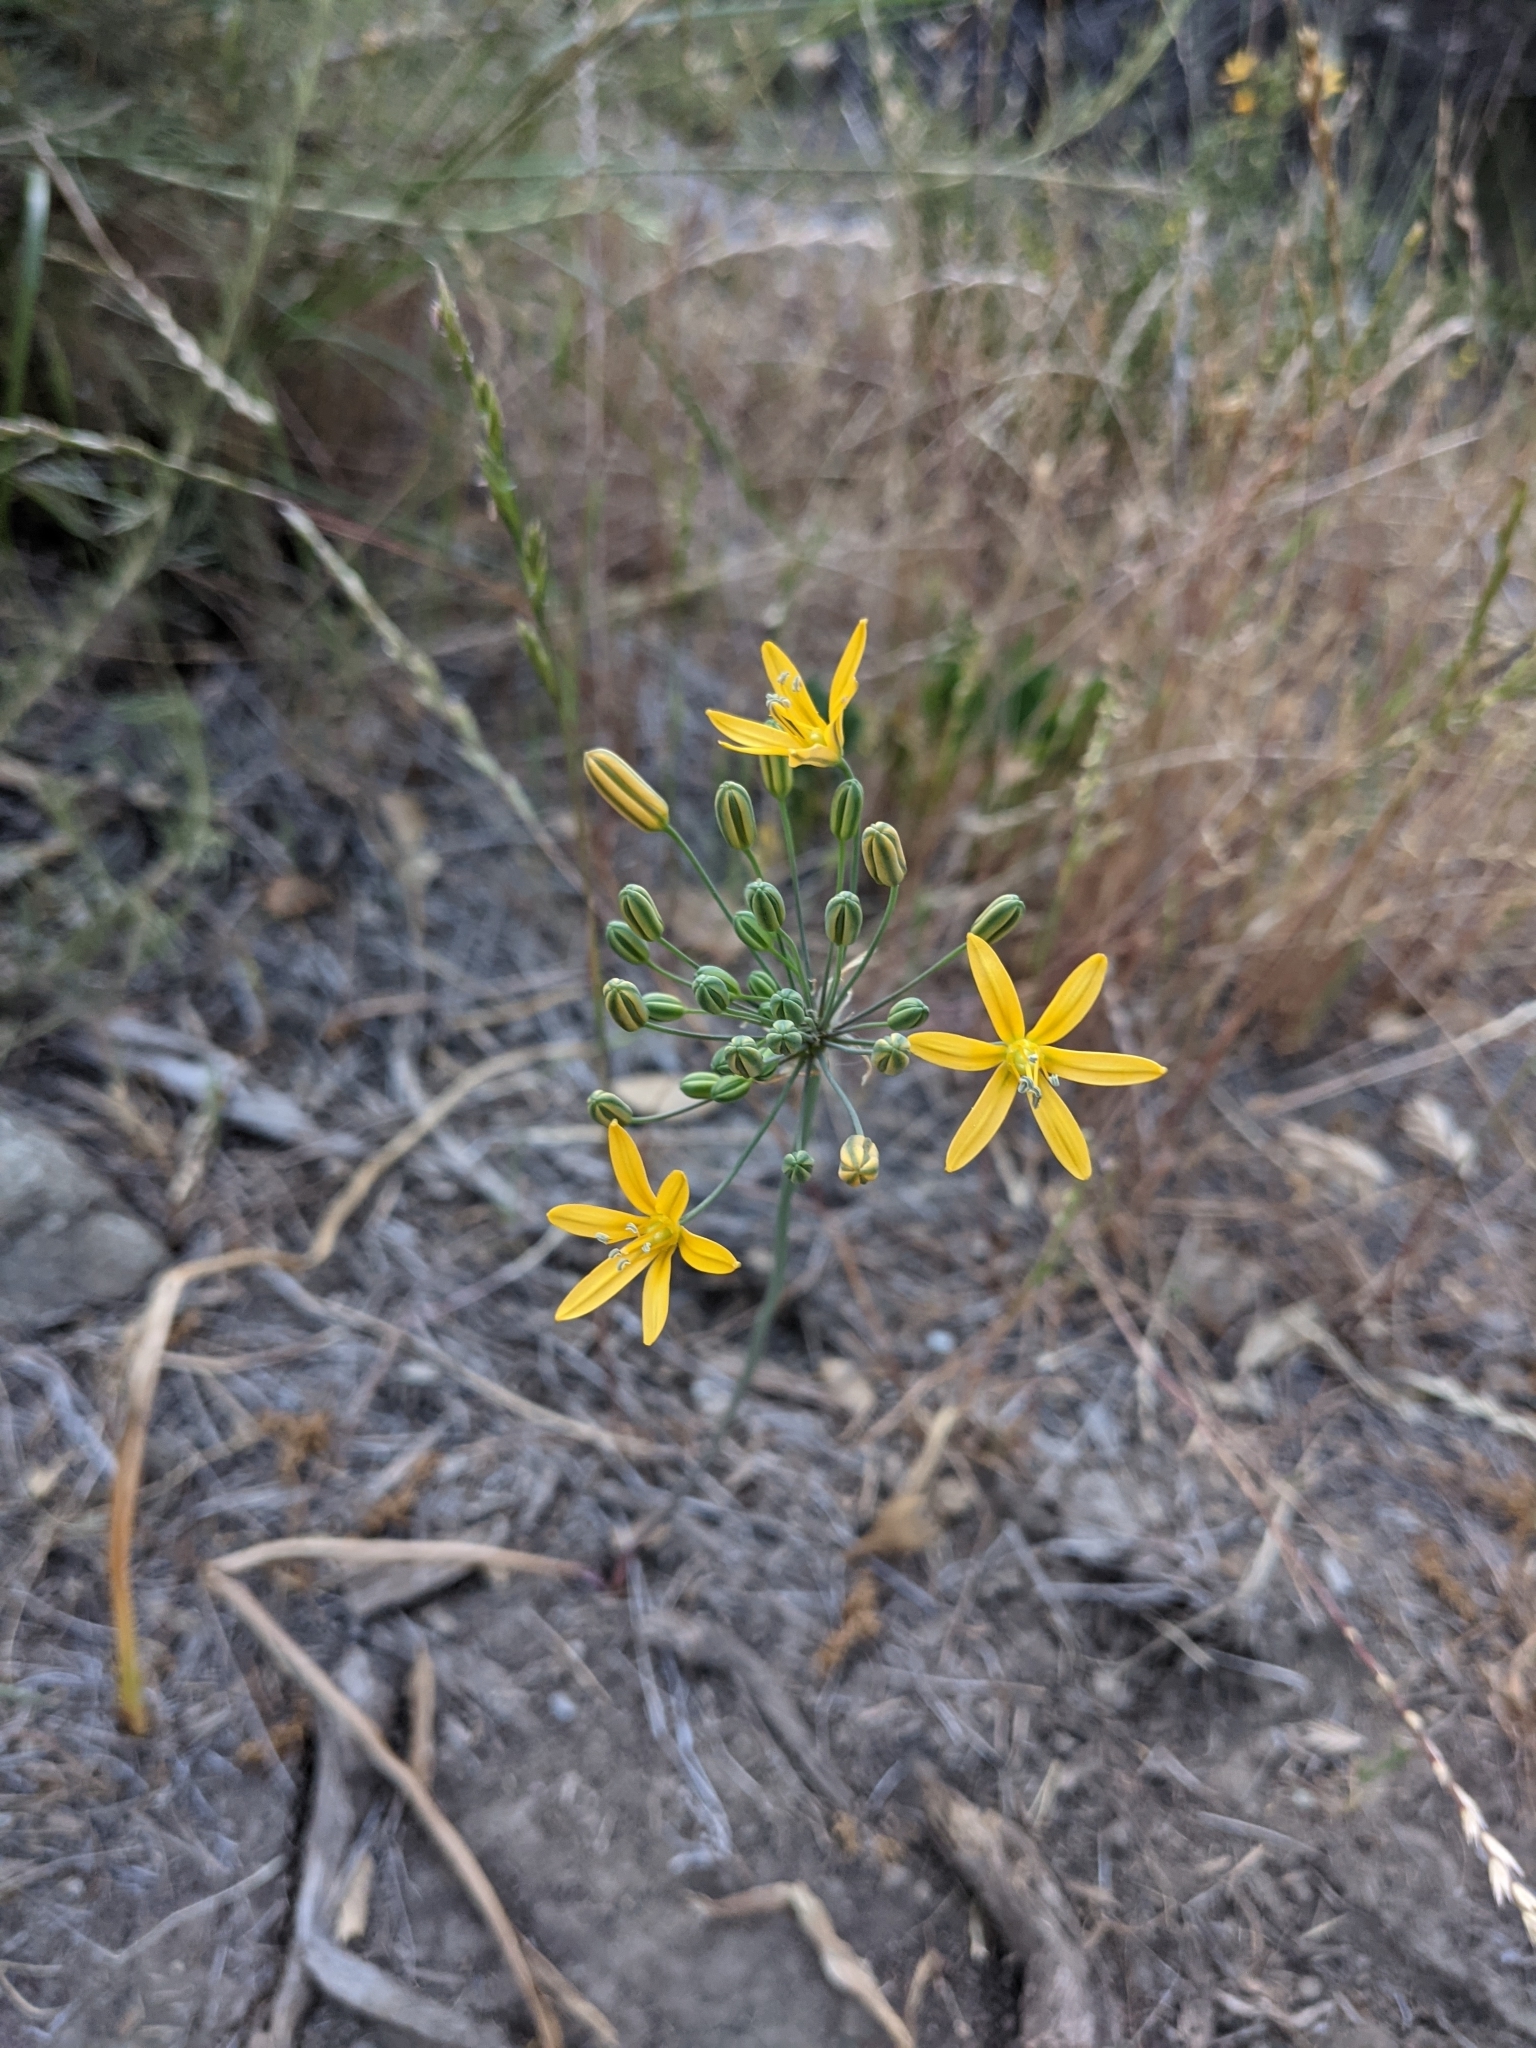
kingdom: Plantae
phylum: Tracheophyta
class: Liliopsida
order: Asparagales
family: Asparagaceae
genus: Bloomeria
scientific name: Bloomeria crocea
